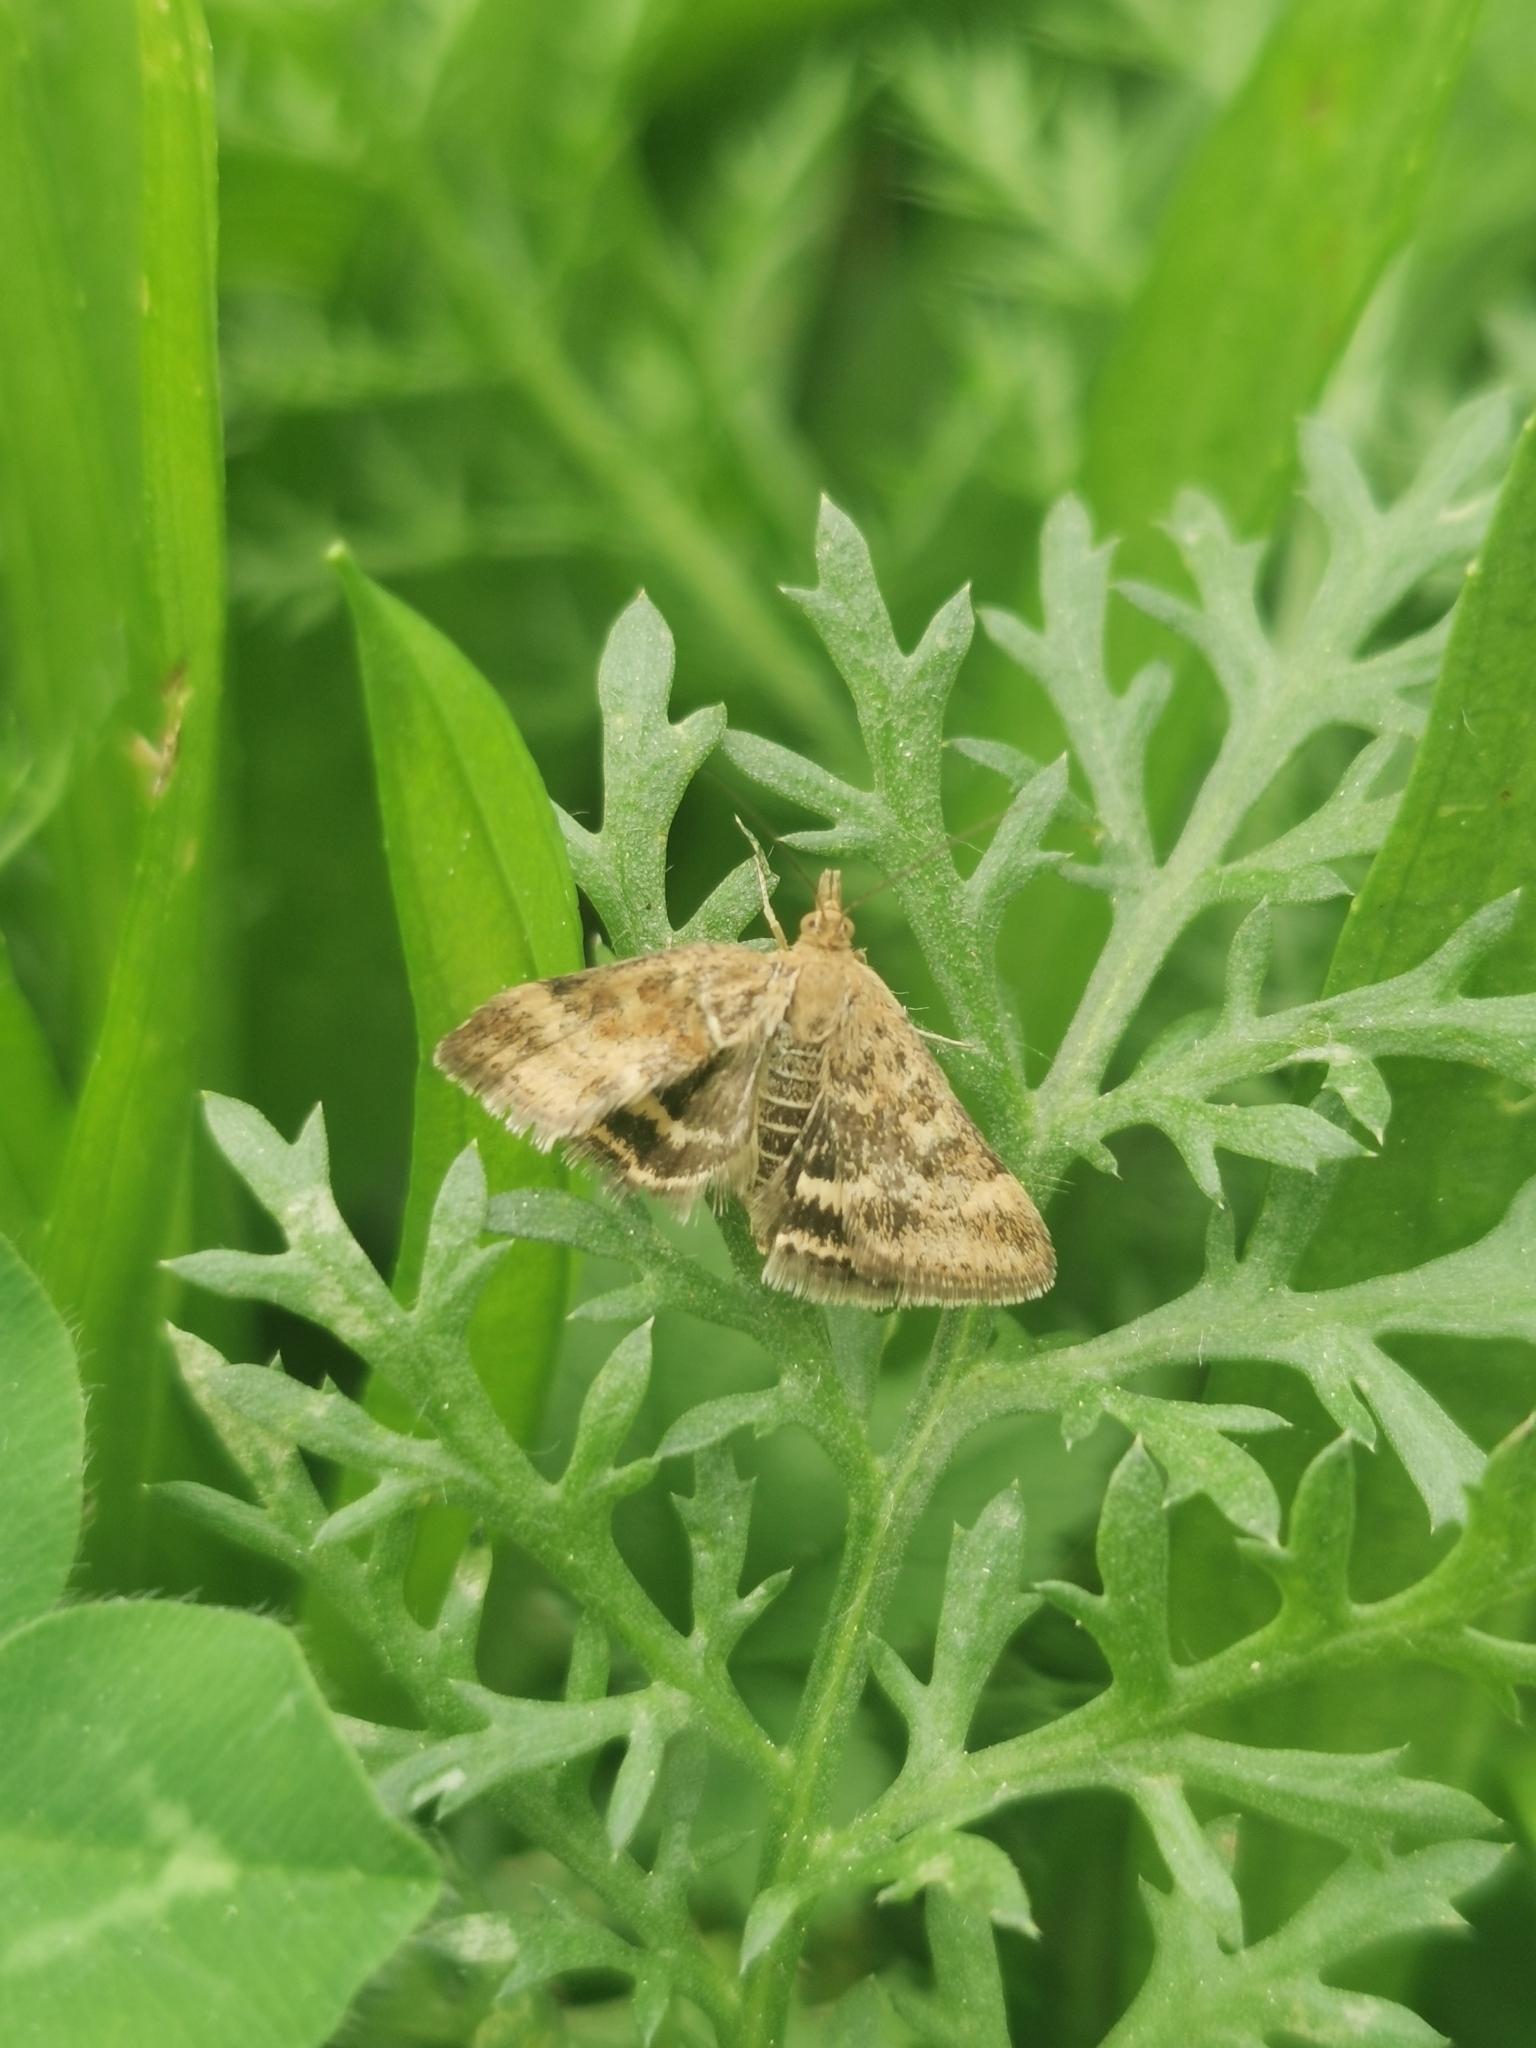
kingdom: Animalia
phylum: Arthropoda
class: Insecta
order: Lepidoptera
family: Crambidae
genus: Pyrausta
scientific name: Pyrausta despicata
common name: Straw-barred pearl
